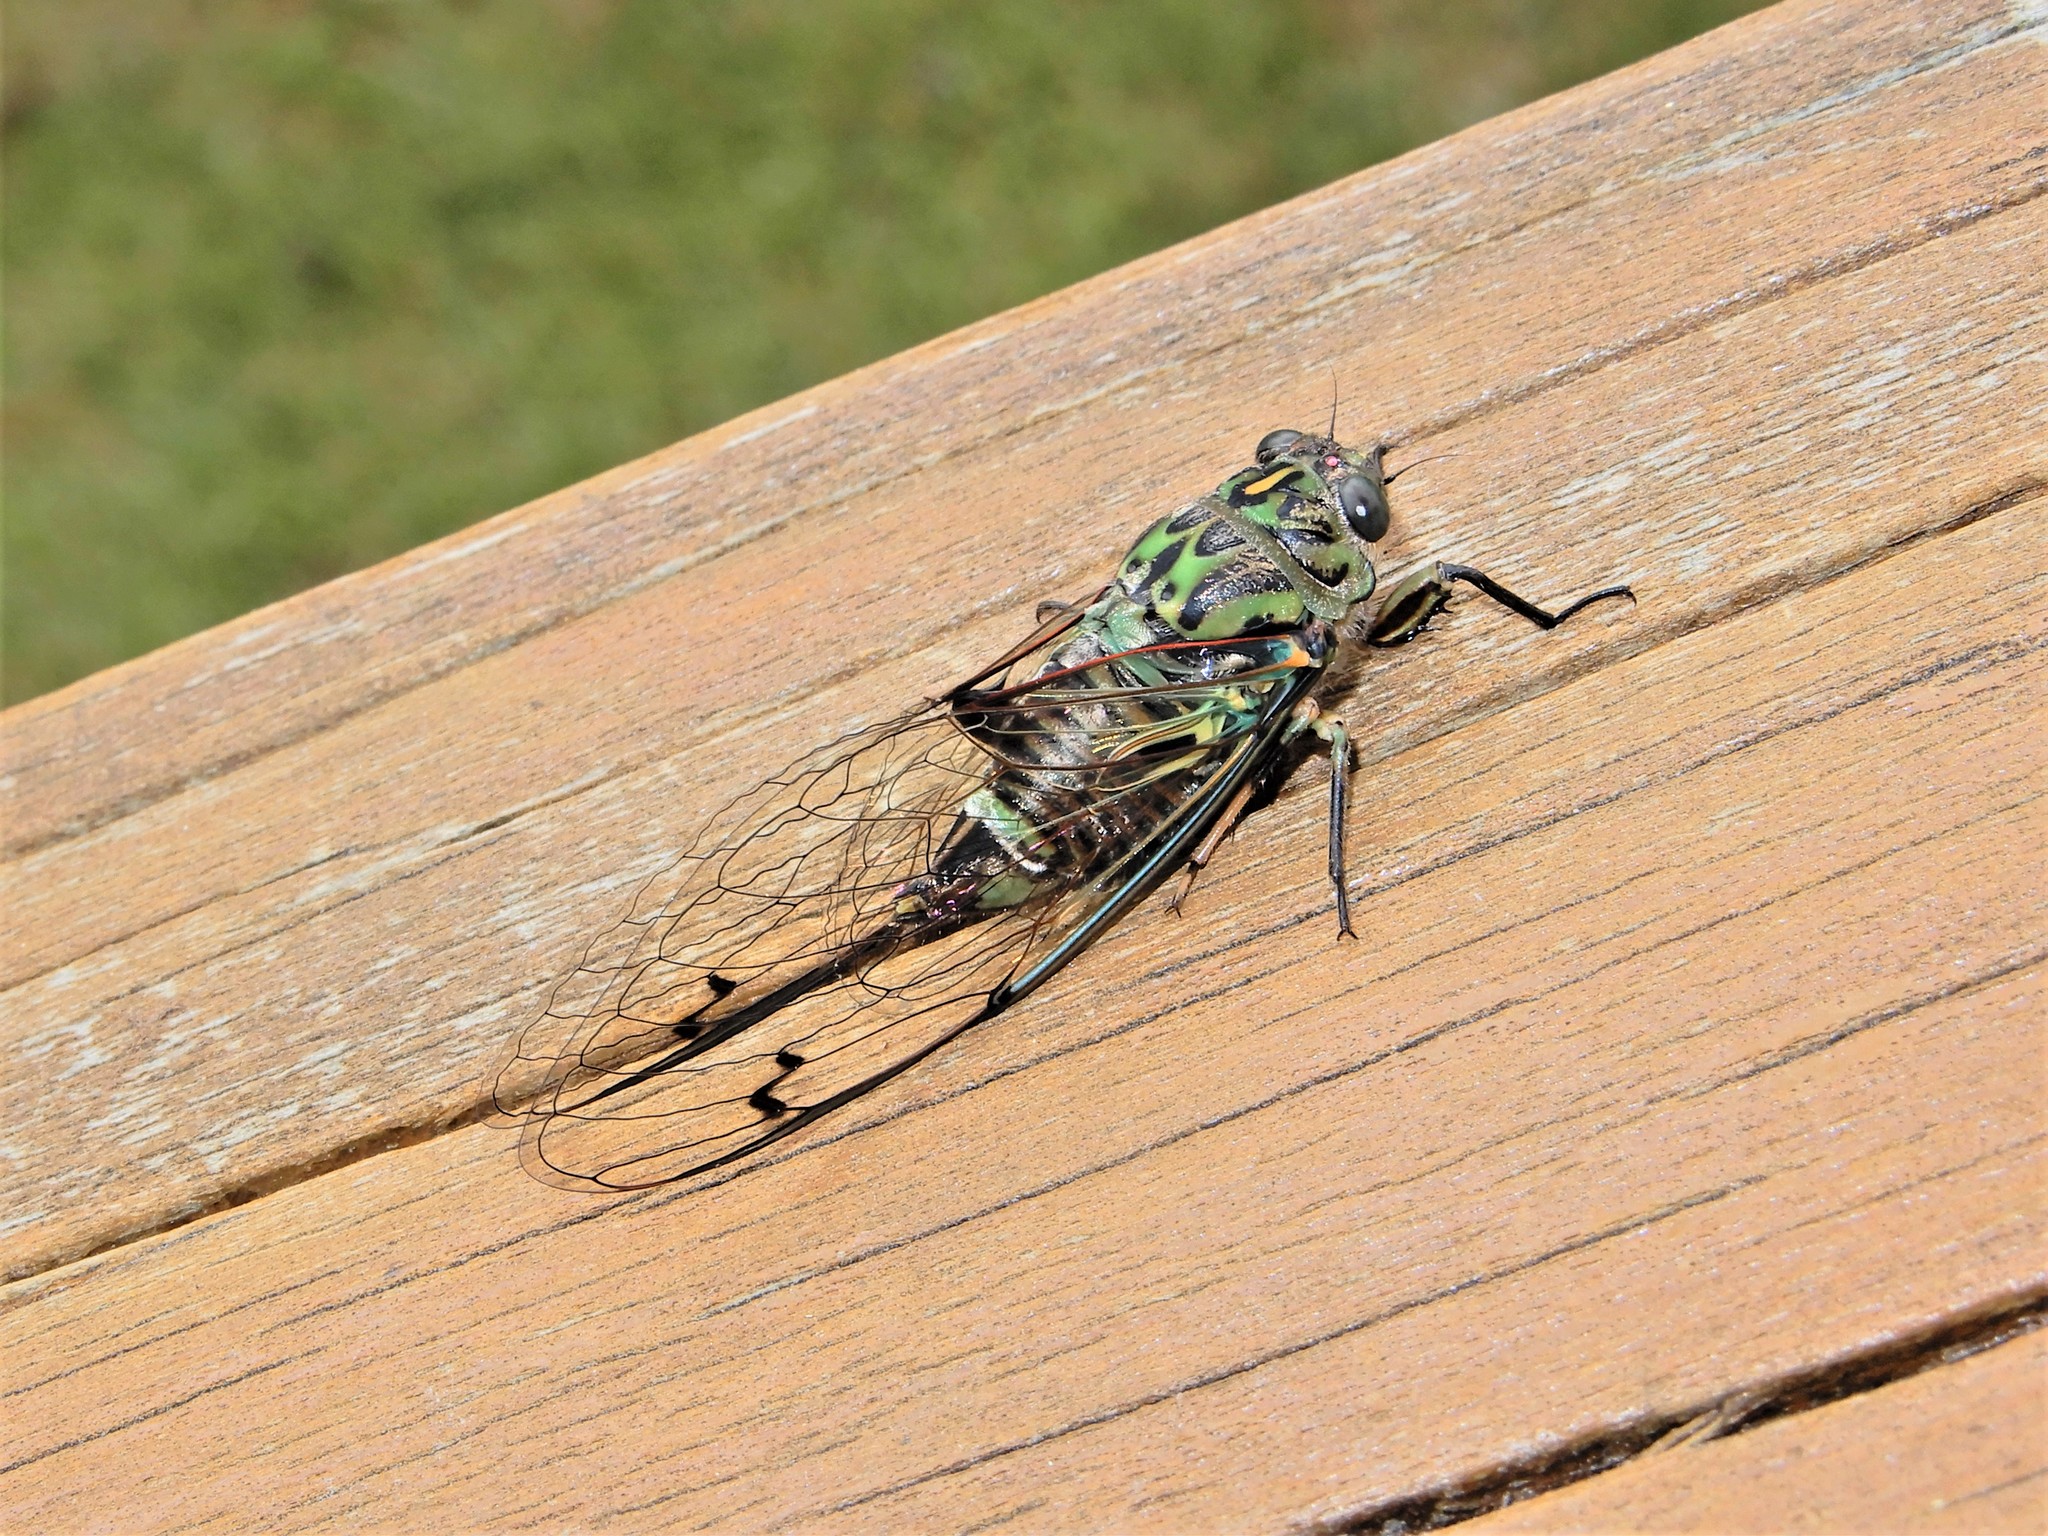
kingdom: Animalia
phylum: Arthropoda
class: Insecta
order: Hemiptera
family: Cicadidae
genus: Amphipsalta
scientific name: Amphipsalta zelandica
